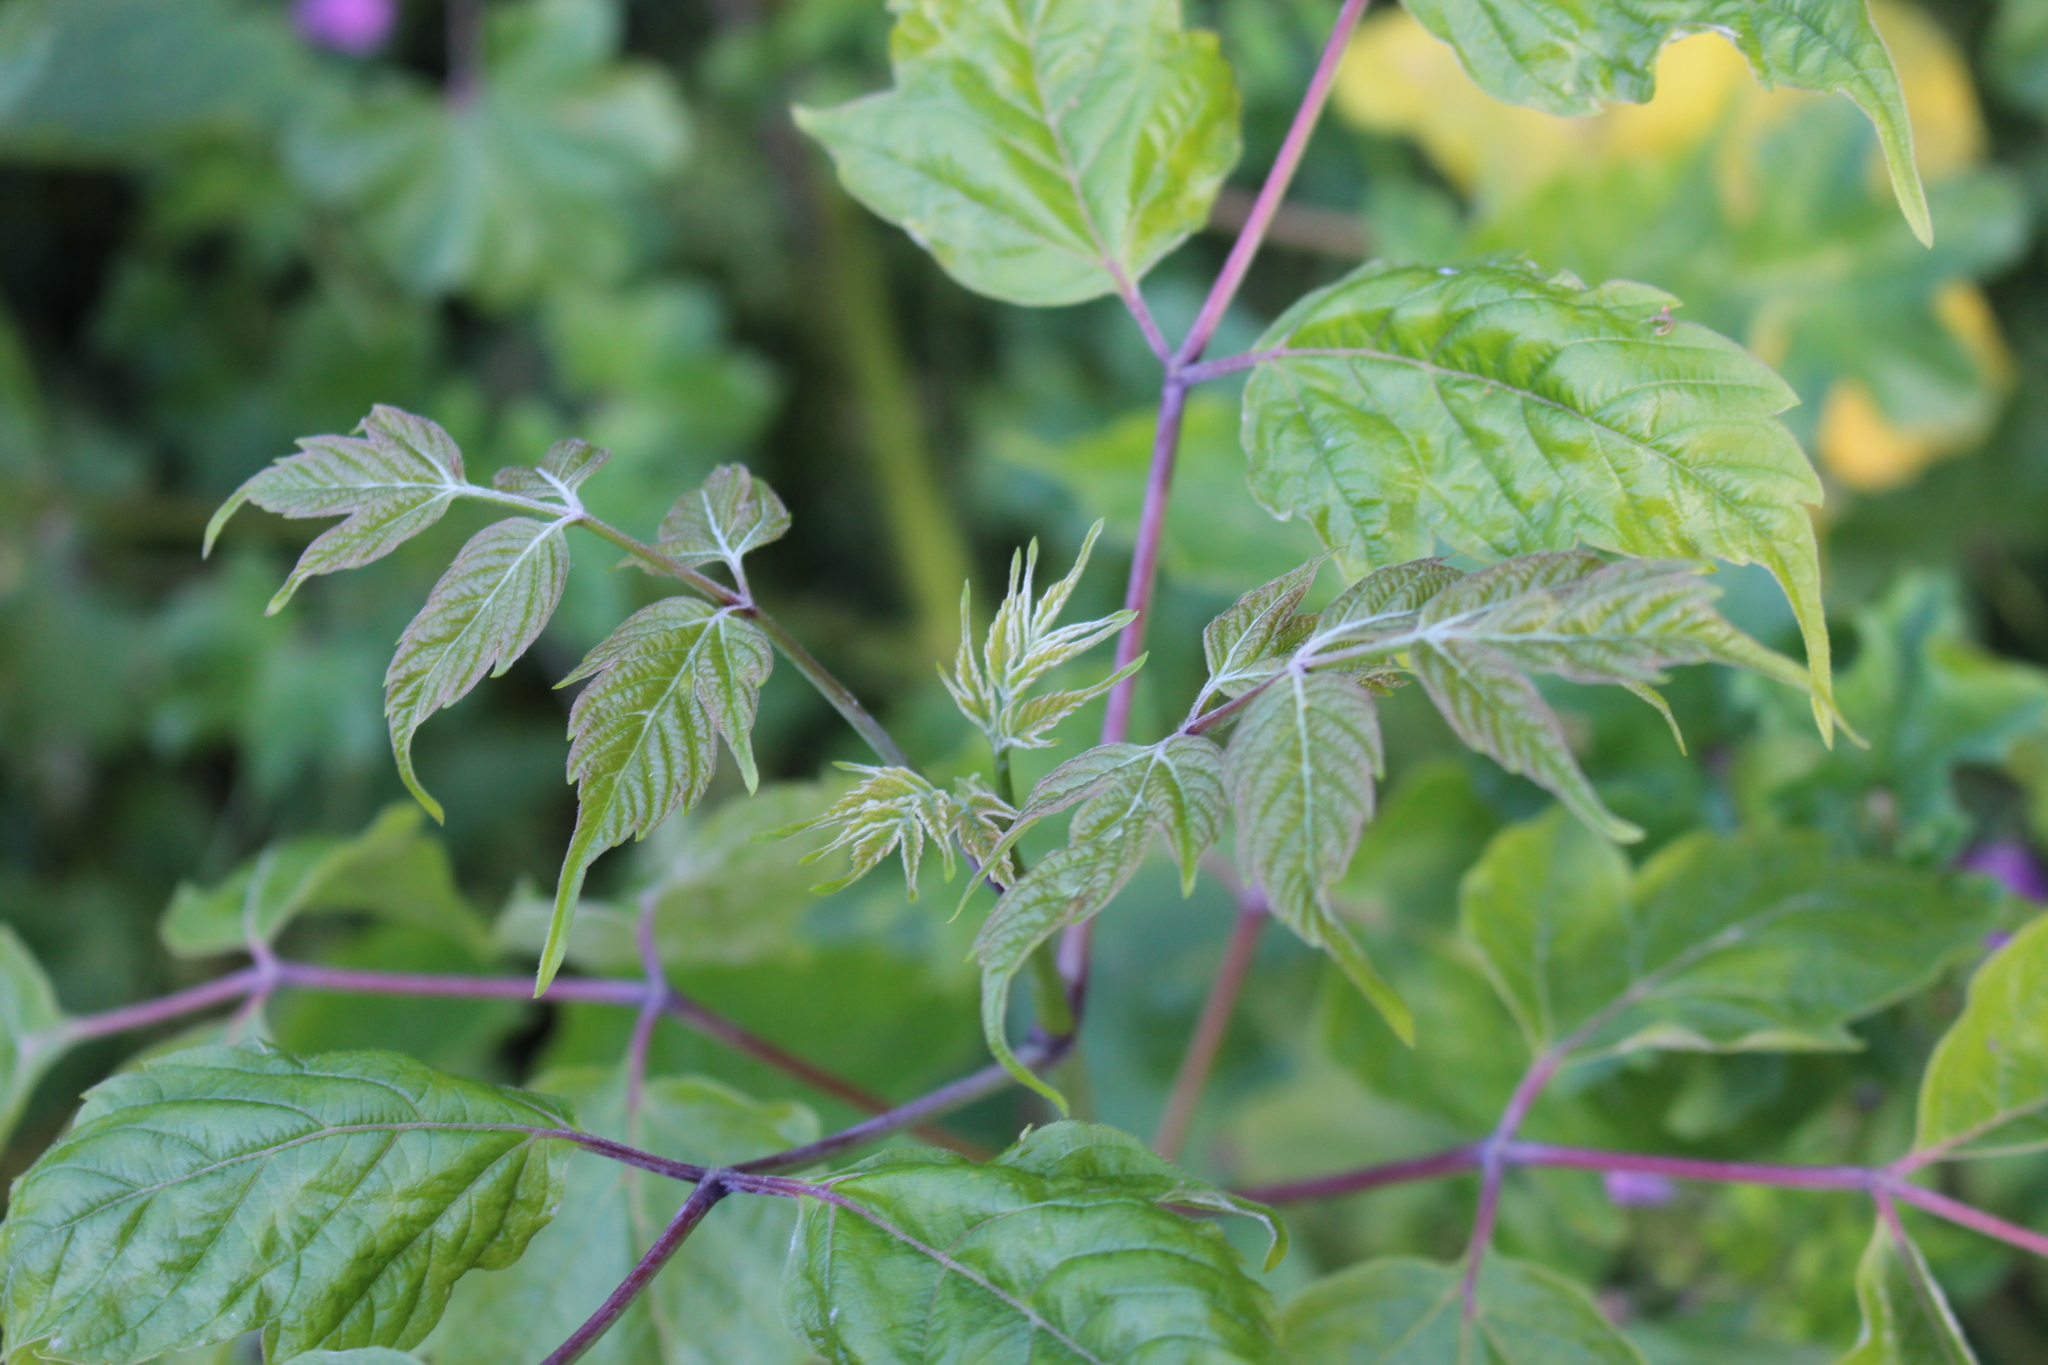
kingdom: Plantae
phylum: Tracheophyta
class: Magnoliopsida
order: Sapindales
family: Sapindaceae
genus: Acer
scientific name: Acer negundo
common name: Ashleaf maple
